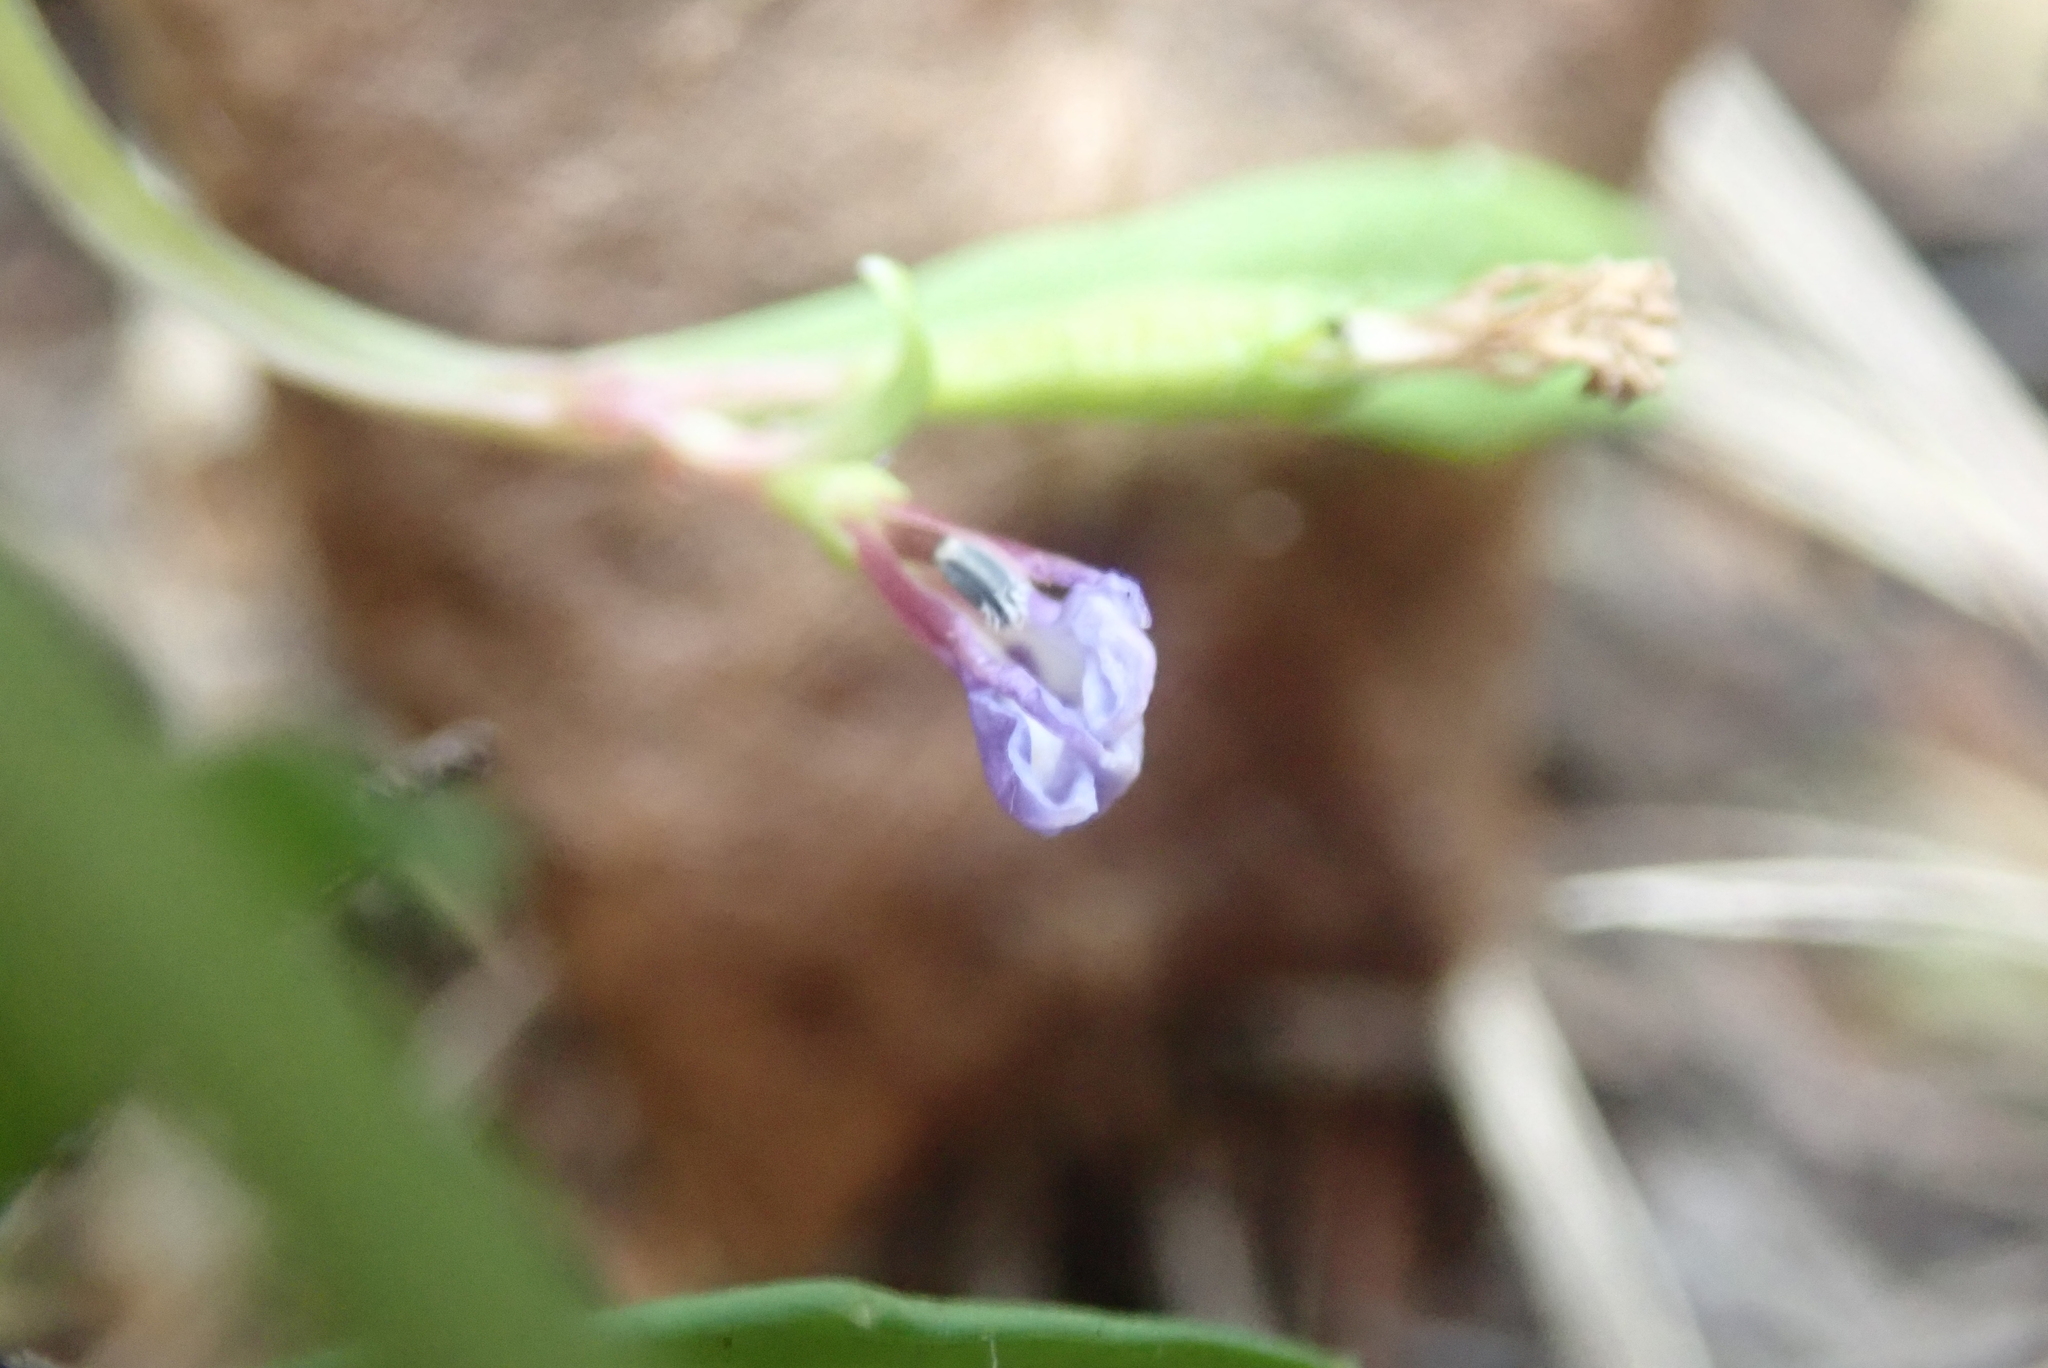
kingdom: Plantae
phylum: Tracheophyta
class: Magnoliopsida
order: Asterales
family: Campanulaceae
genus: Lobelia
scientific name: Lobelia anceps
